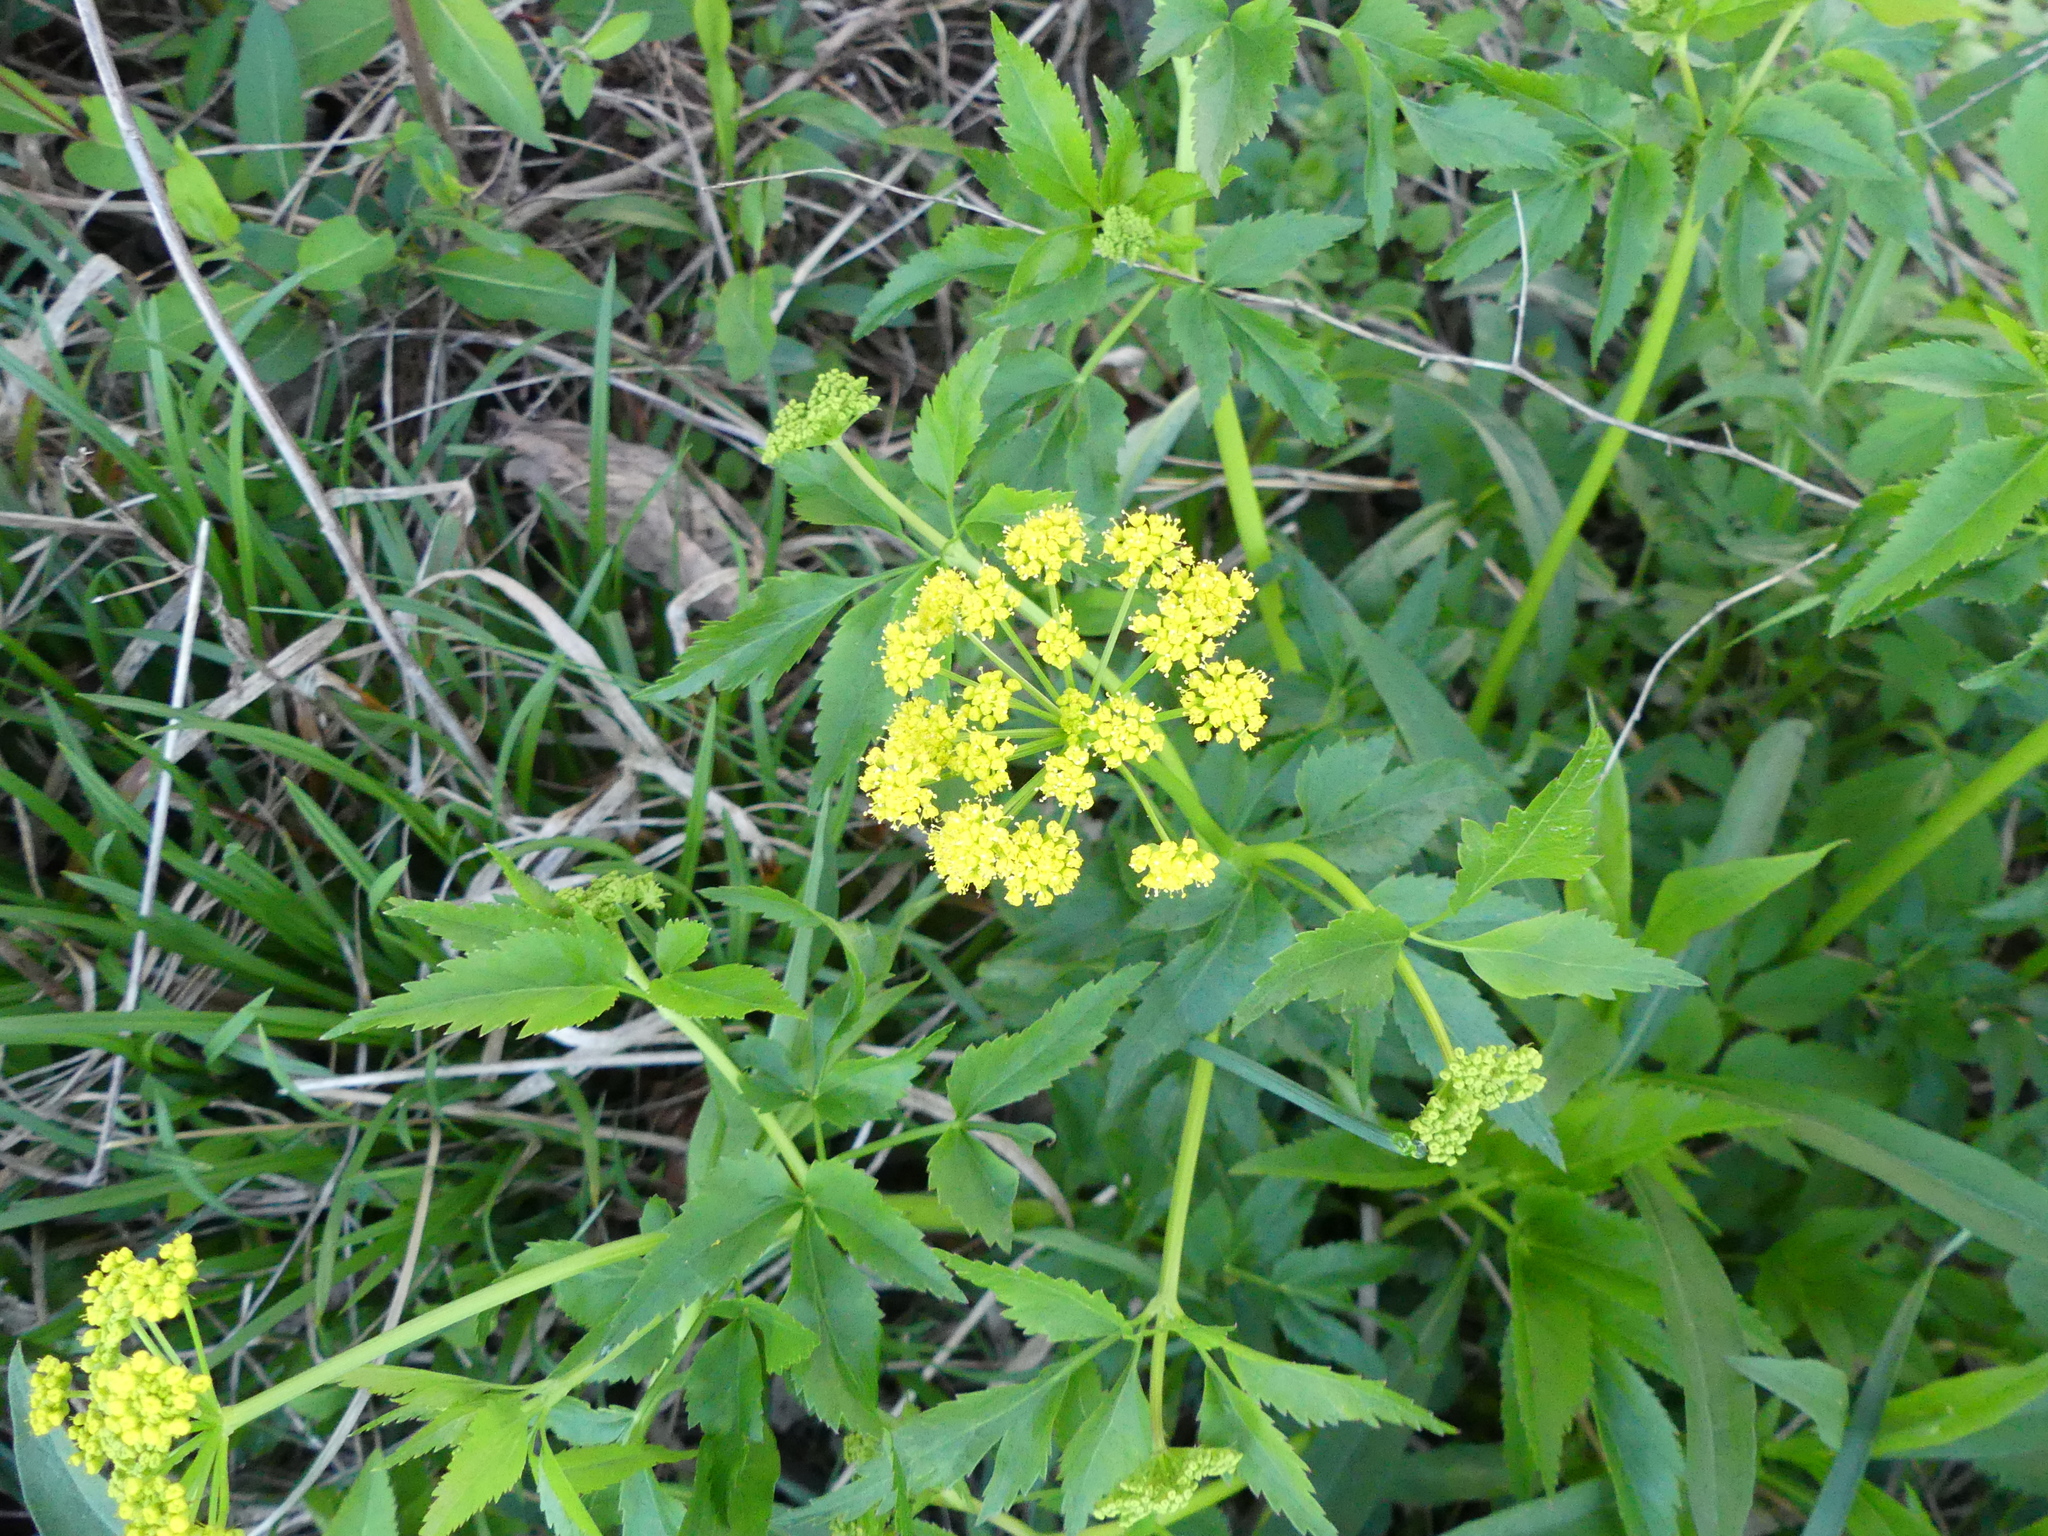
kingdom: Plantae
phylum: Tracheophyta
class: Magnoliopsida
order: Apiales
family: Apiaceae
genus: Zizia
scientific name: Zizia aurea
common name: Golden alexanders
